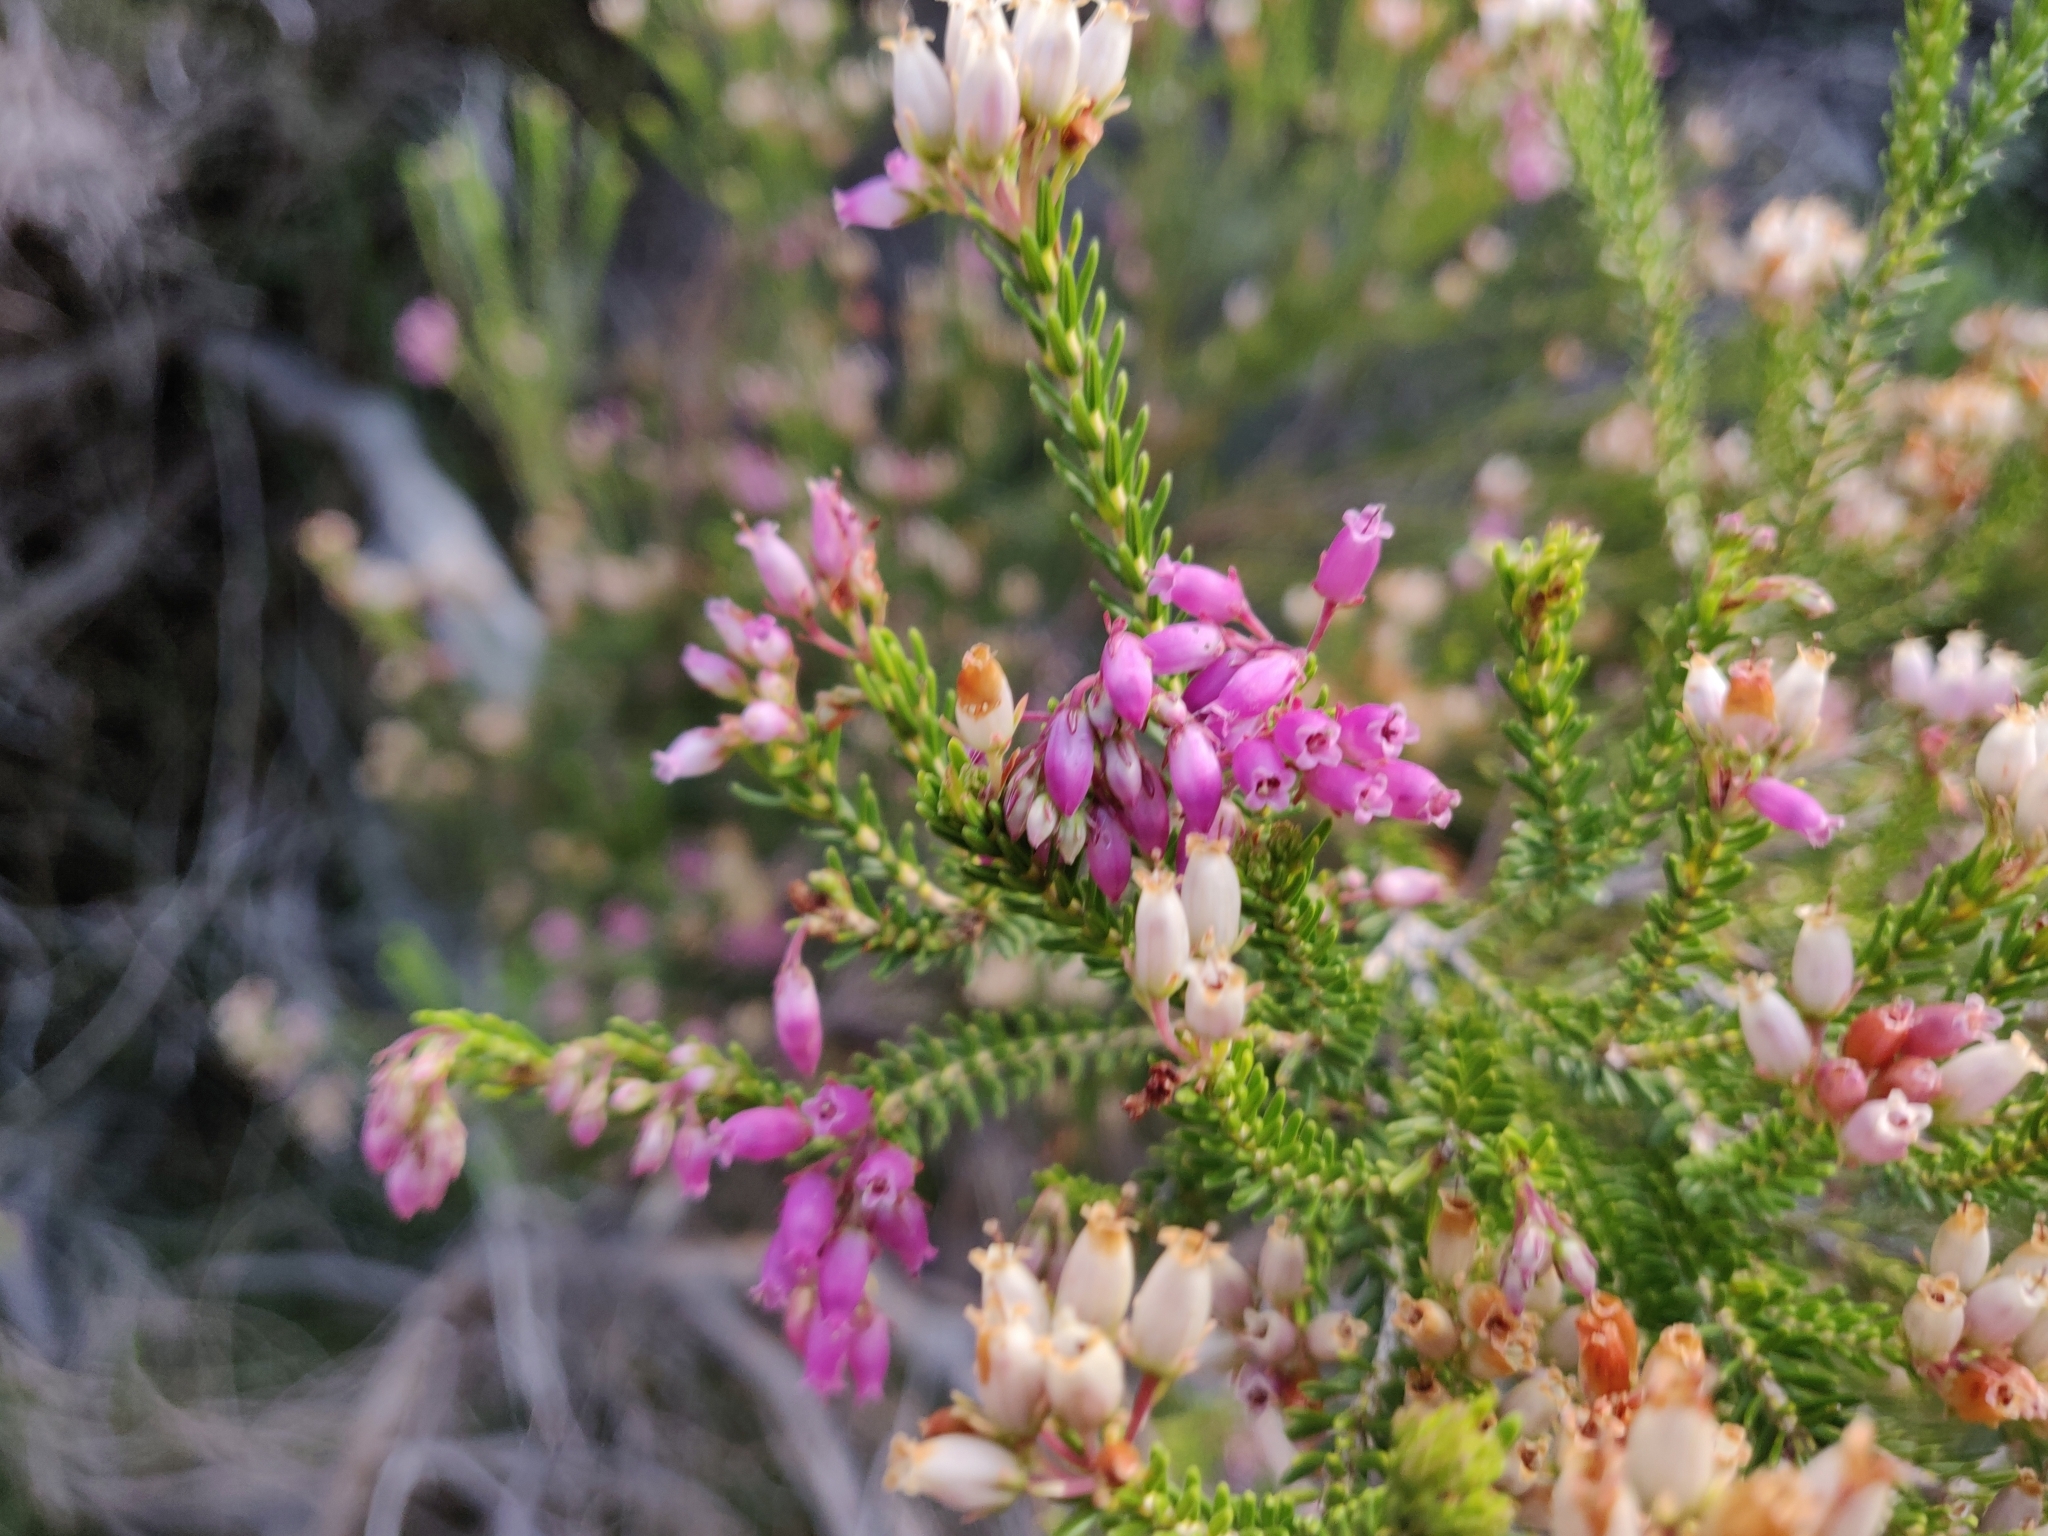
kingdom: Plantae
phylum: Tracheophyta
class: Magnoliopsida
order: Ericales
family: Ericaceae
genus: Erica
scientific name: Erica terminalis
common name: Corsican heath
